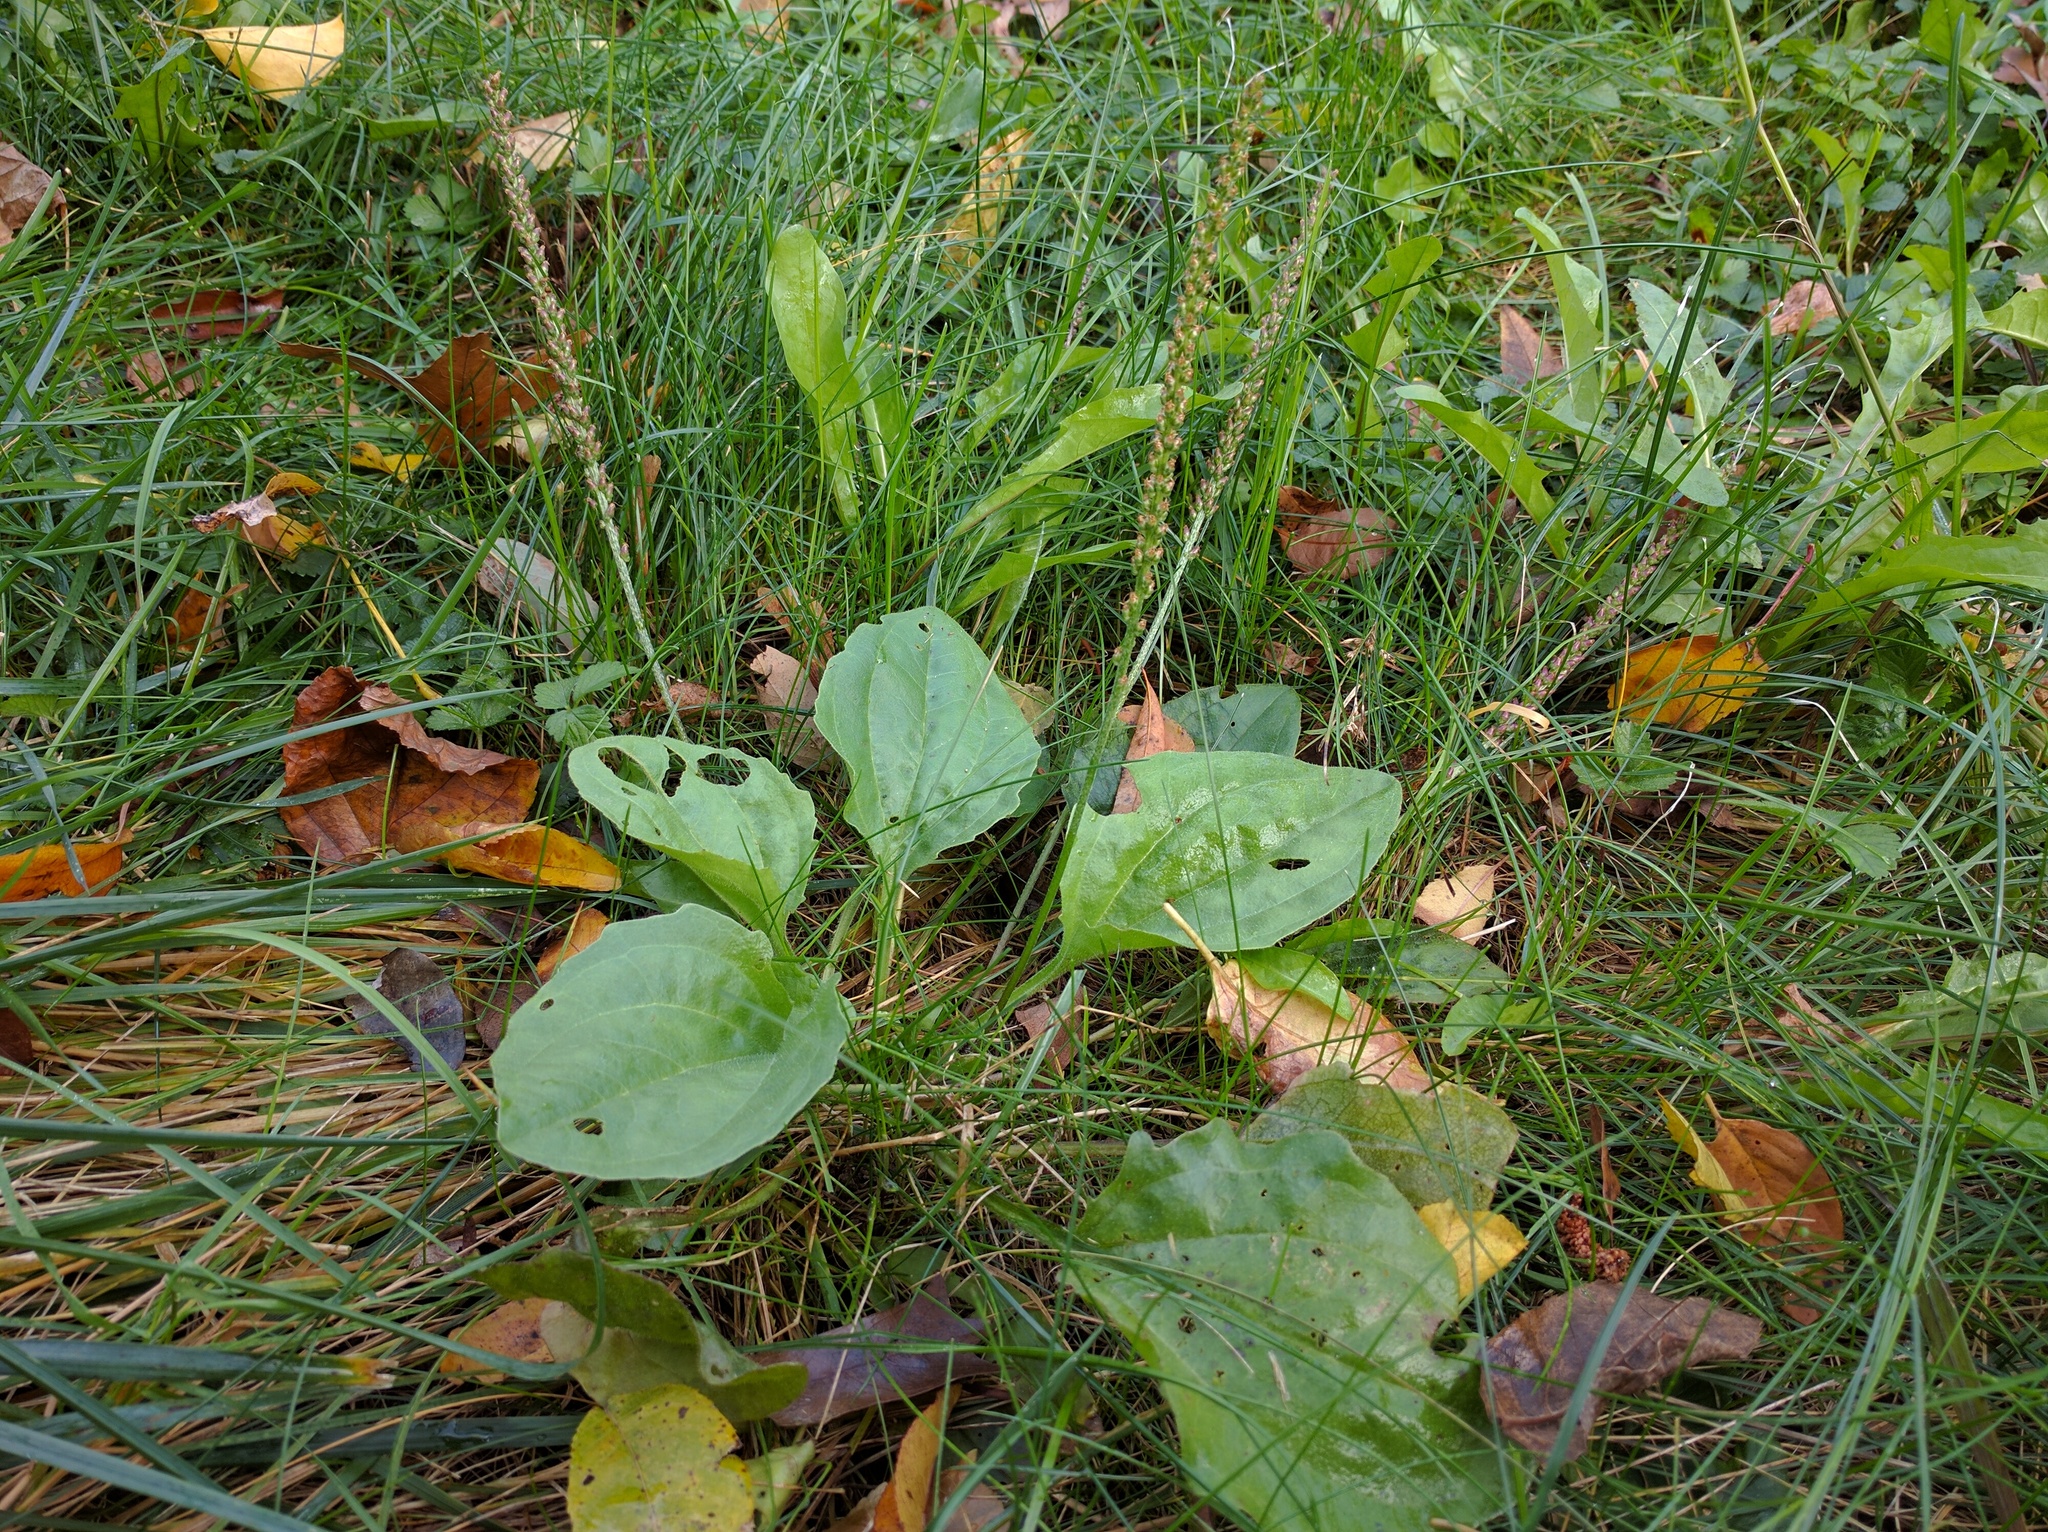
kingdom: Plantae
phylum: Tracheophyta
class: Magnoliopsida
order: Lamiales
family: Plantaginaceae
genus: Plantago
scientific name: Plantago major
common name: Common plantain
